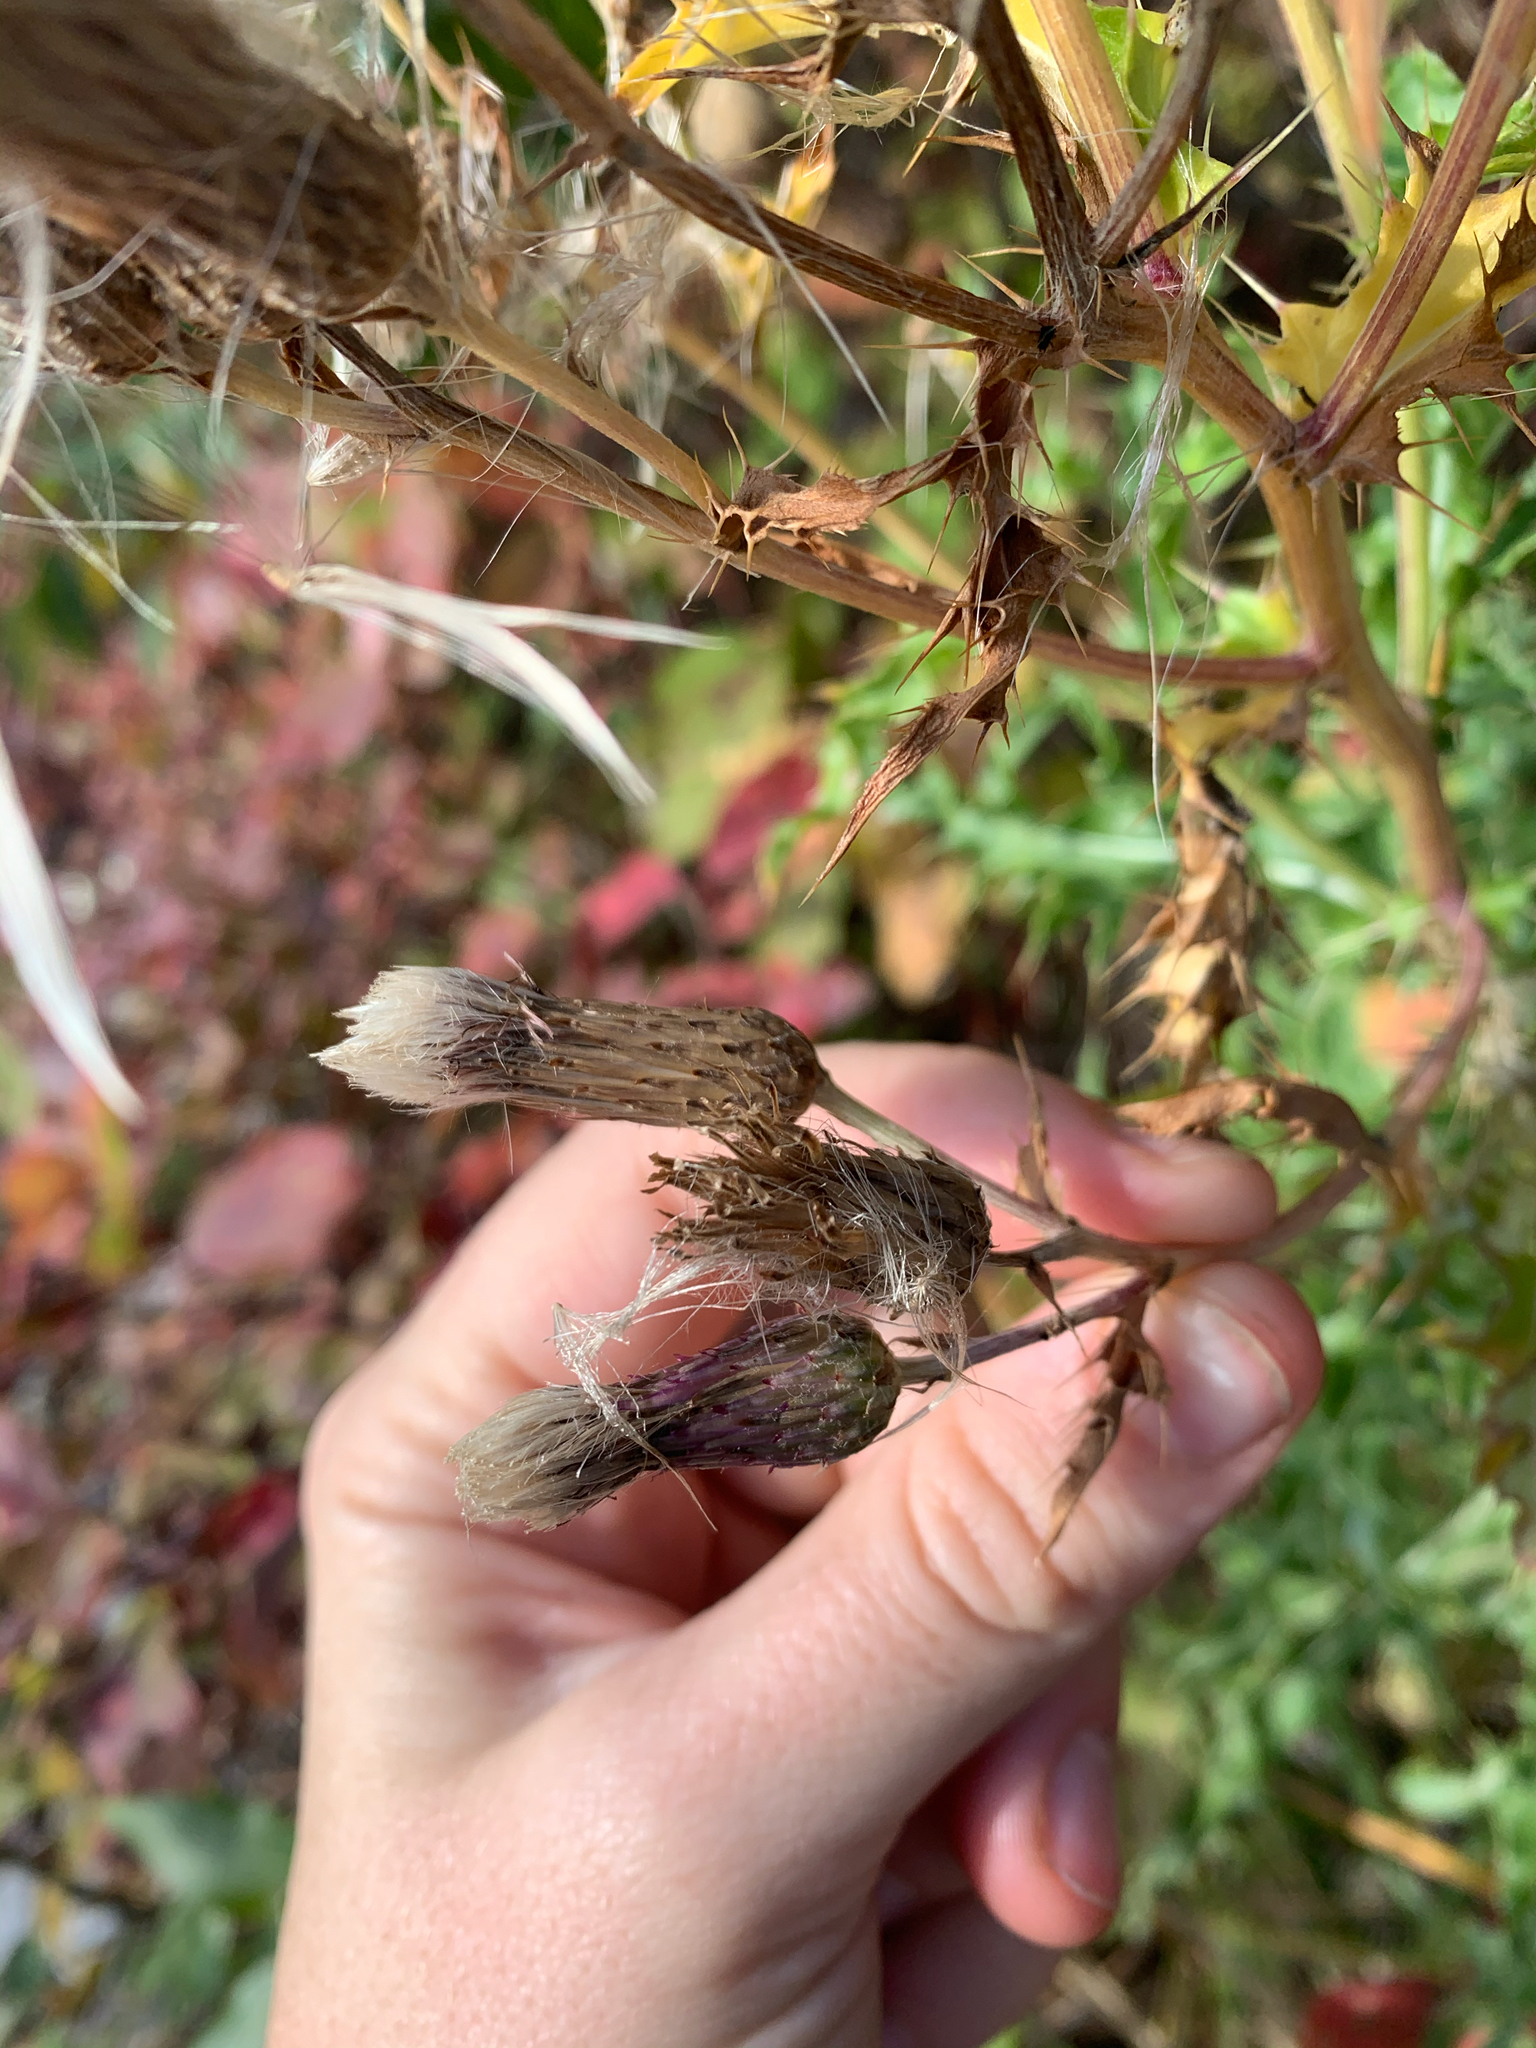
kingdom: Plantae
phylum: Tracheophyta
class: Magnoliopsida
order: Asterales
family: Asteraceae
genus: Cirsium
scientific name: Cirsium arvense
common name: Creeping thistle
